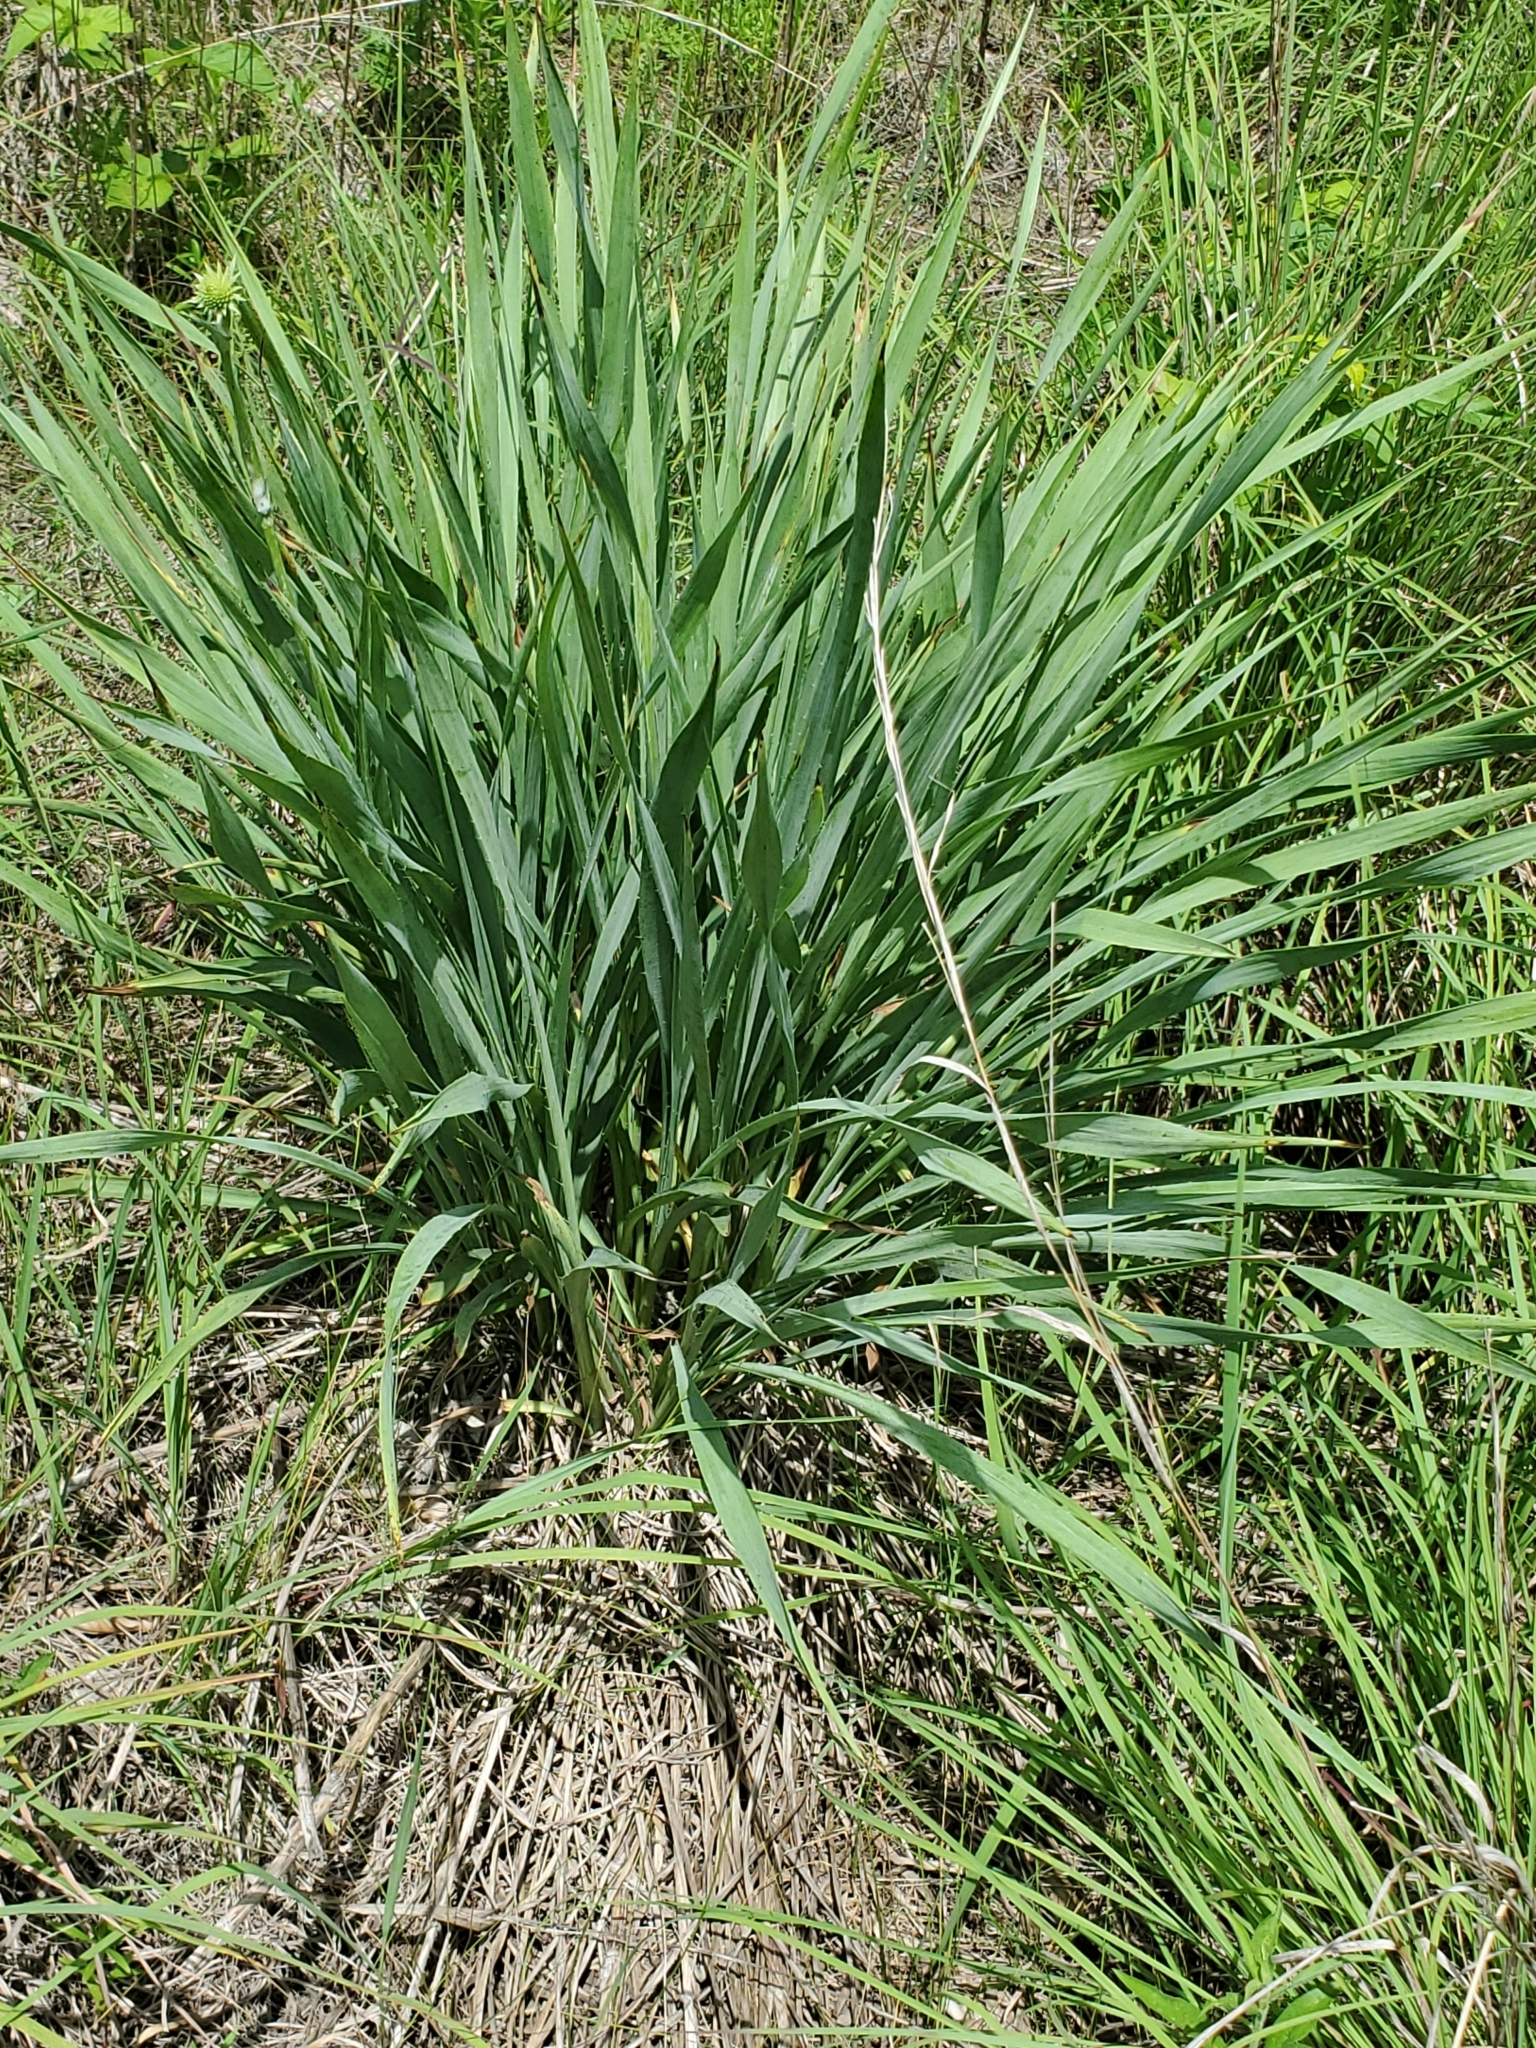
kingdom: Plantae
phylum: Tracheophyta
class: Magnoliopsida
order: Apiales
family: Apiaceae
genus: Eryngium
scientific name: Eryngium yuccifolium
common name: Button eryngo
